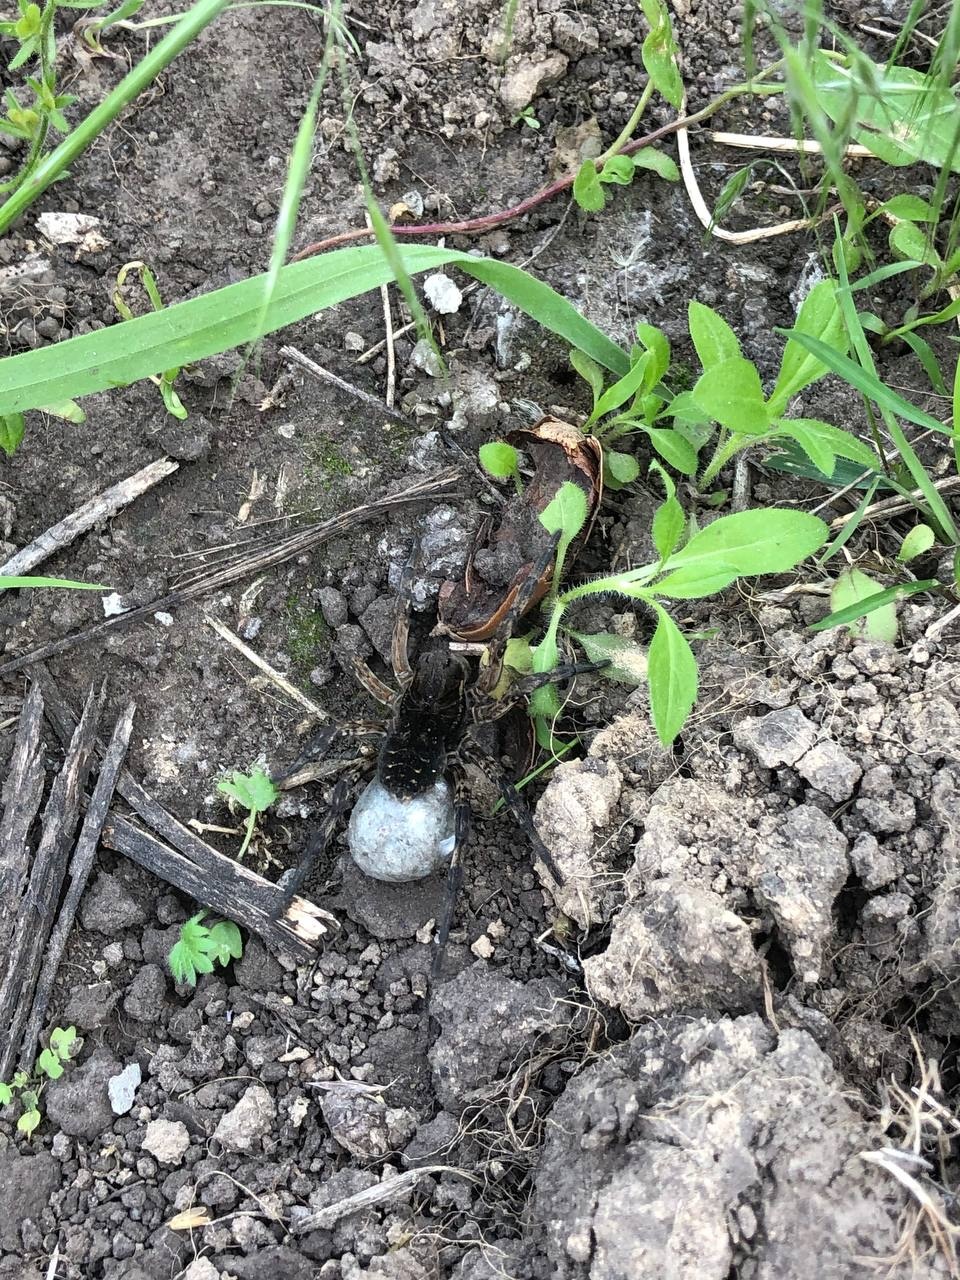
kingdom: Animalia
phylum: Arthropoda
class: Arachnida
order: Araneae
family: Lycosidae
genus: Geolycosa
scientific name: Geolycosa vultuosa
